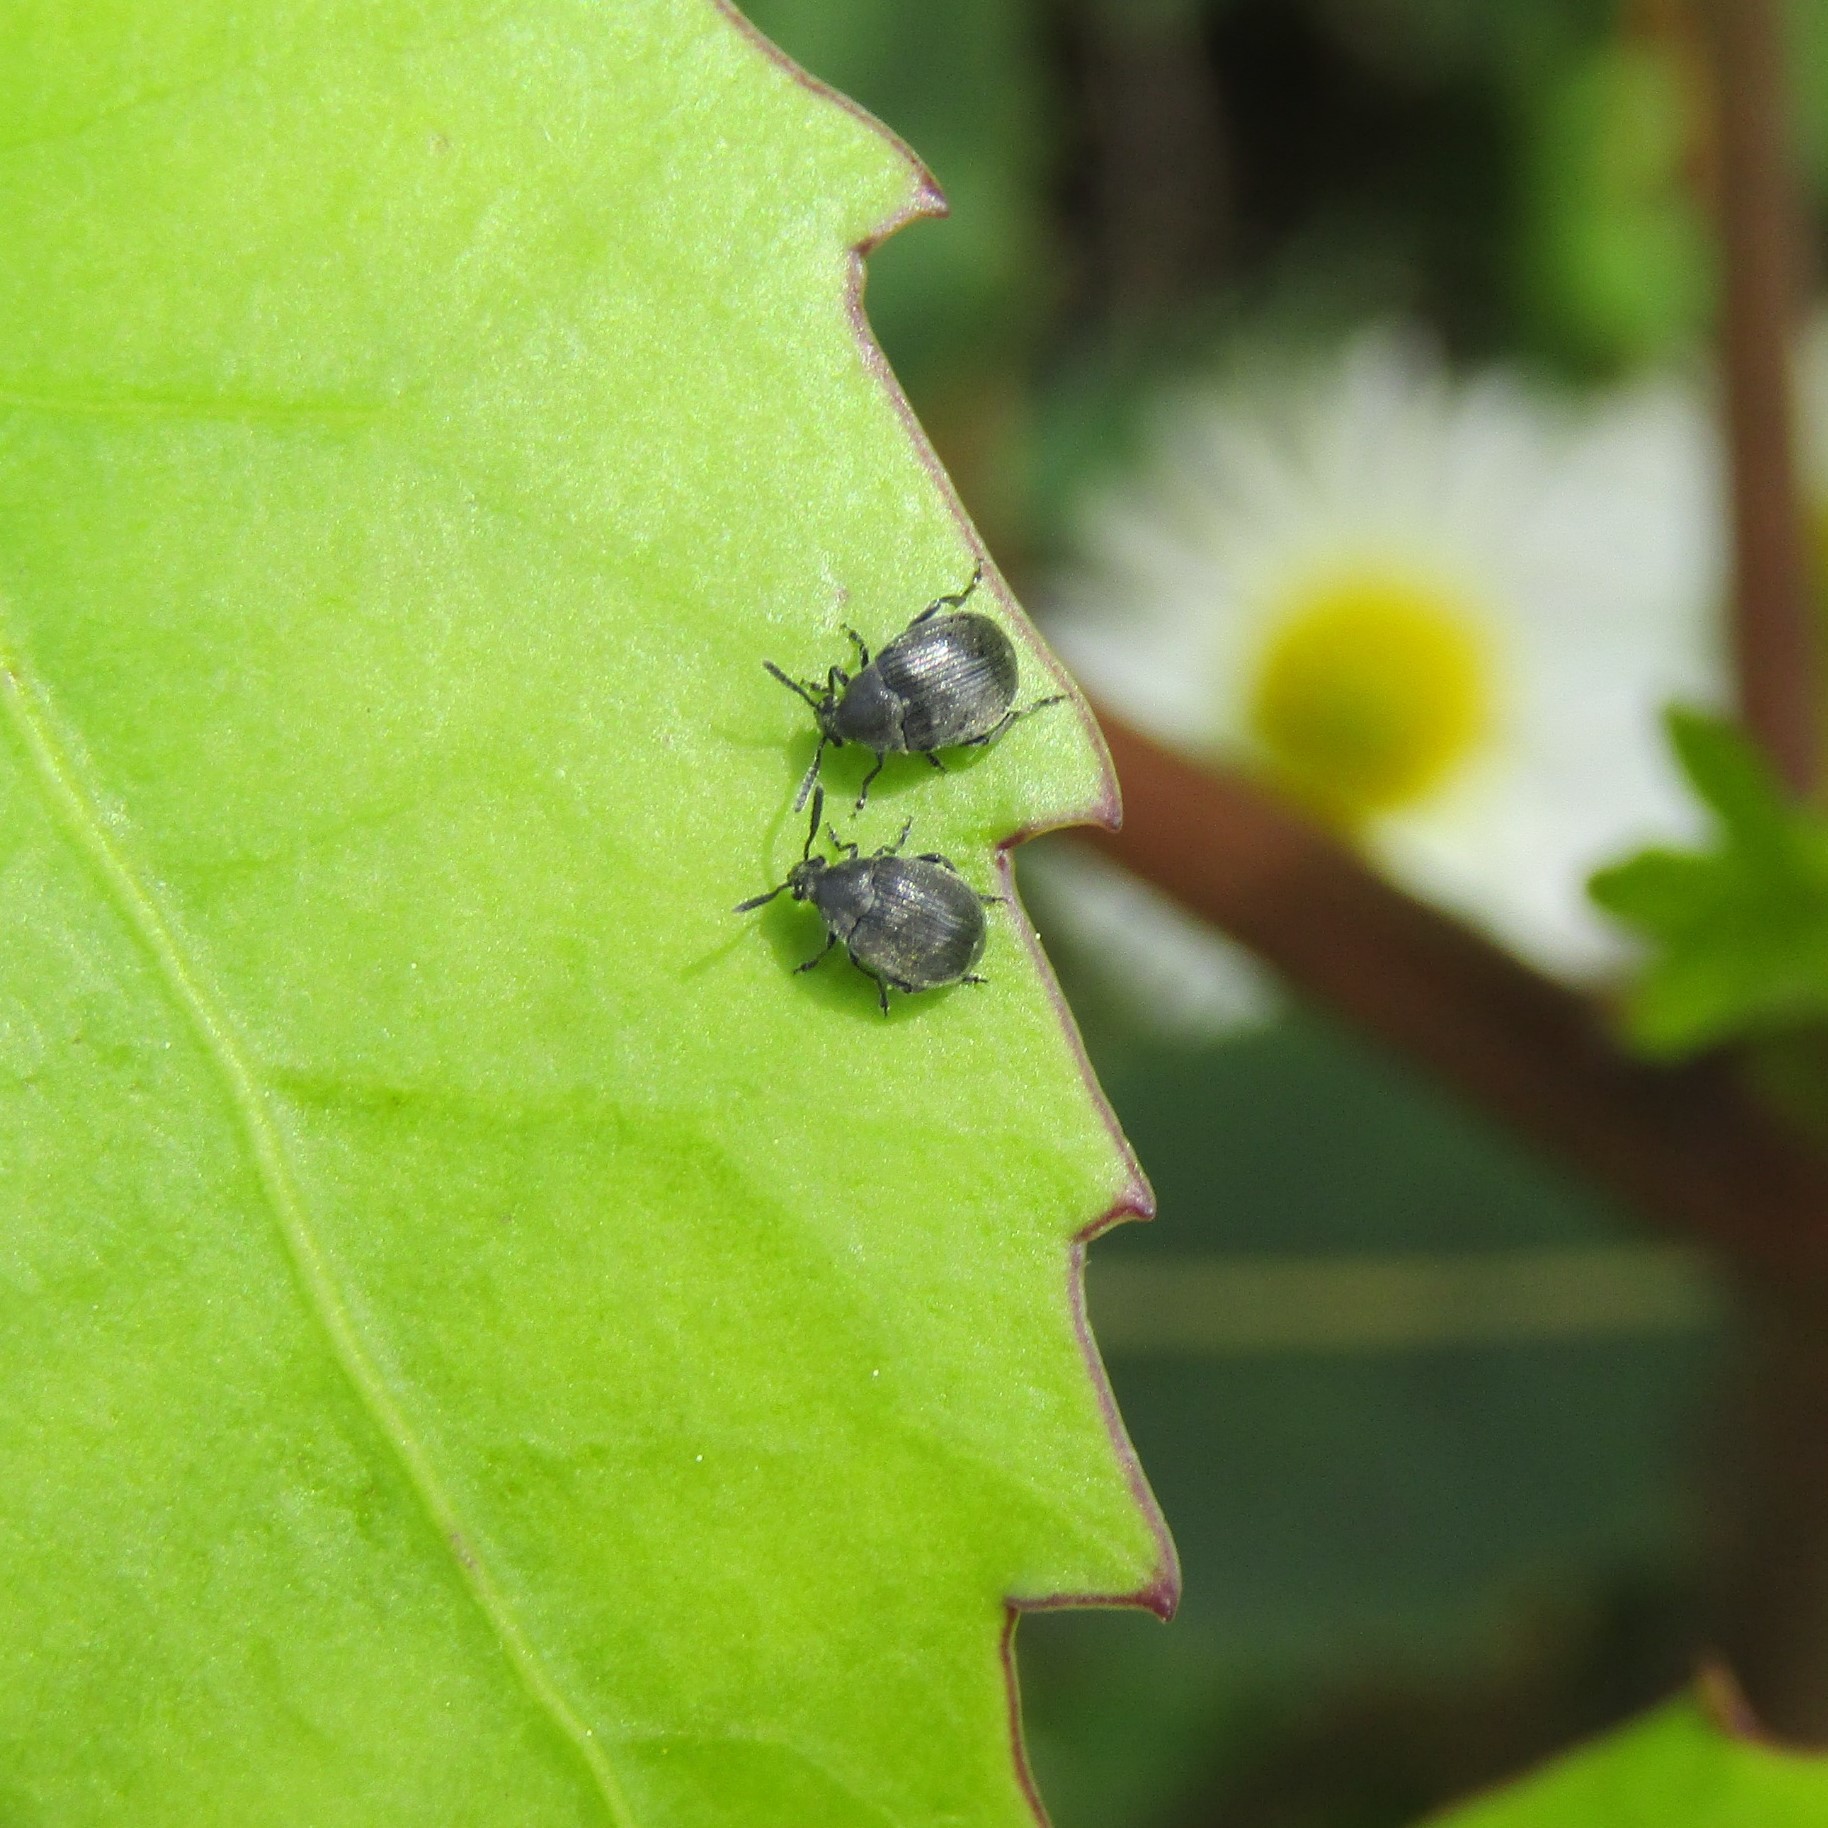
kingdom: Animalia
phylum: Arthropoda
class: Insecta
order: Coleoptera
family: Chrysomelidae
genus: Bruchidius
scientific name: Bruchidius villosus
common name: Scotch broom bruchid
